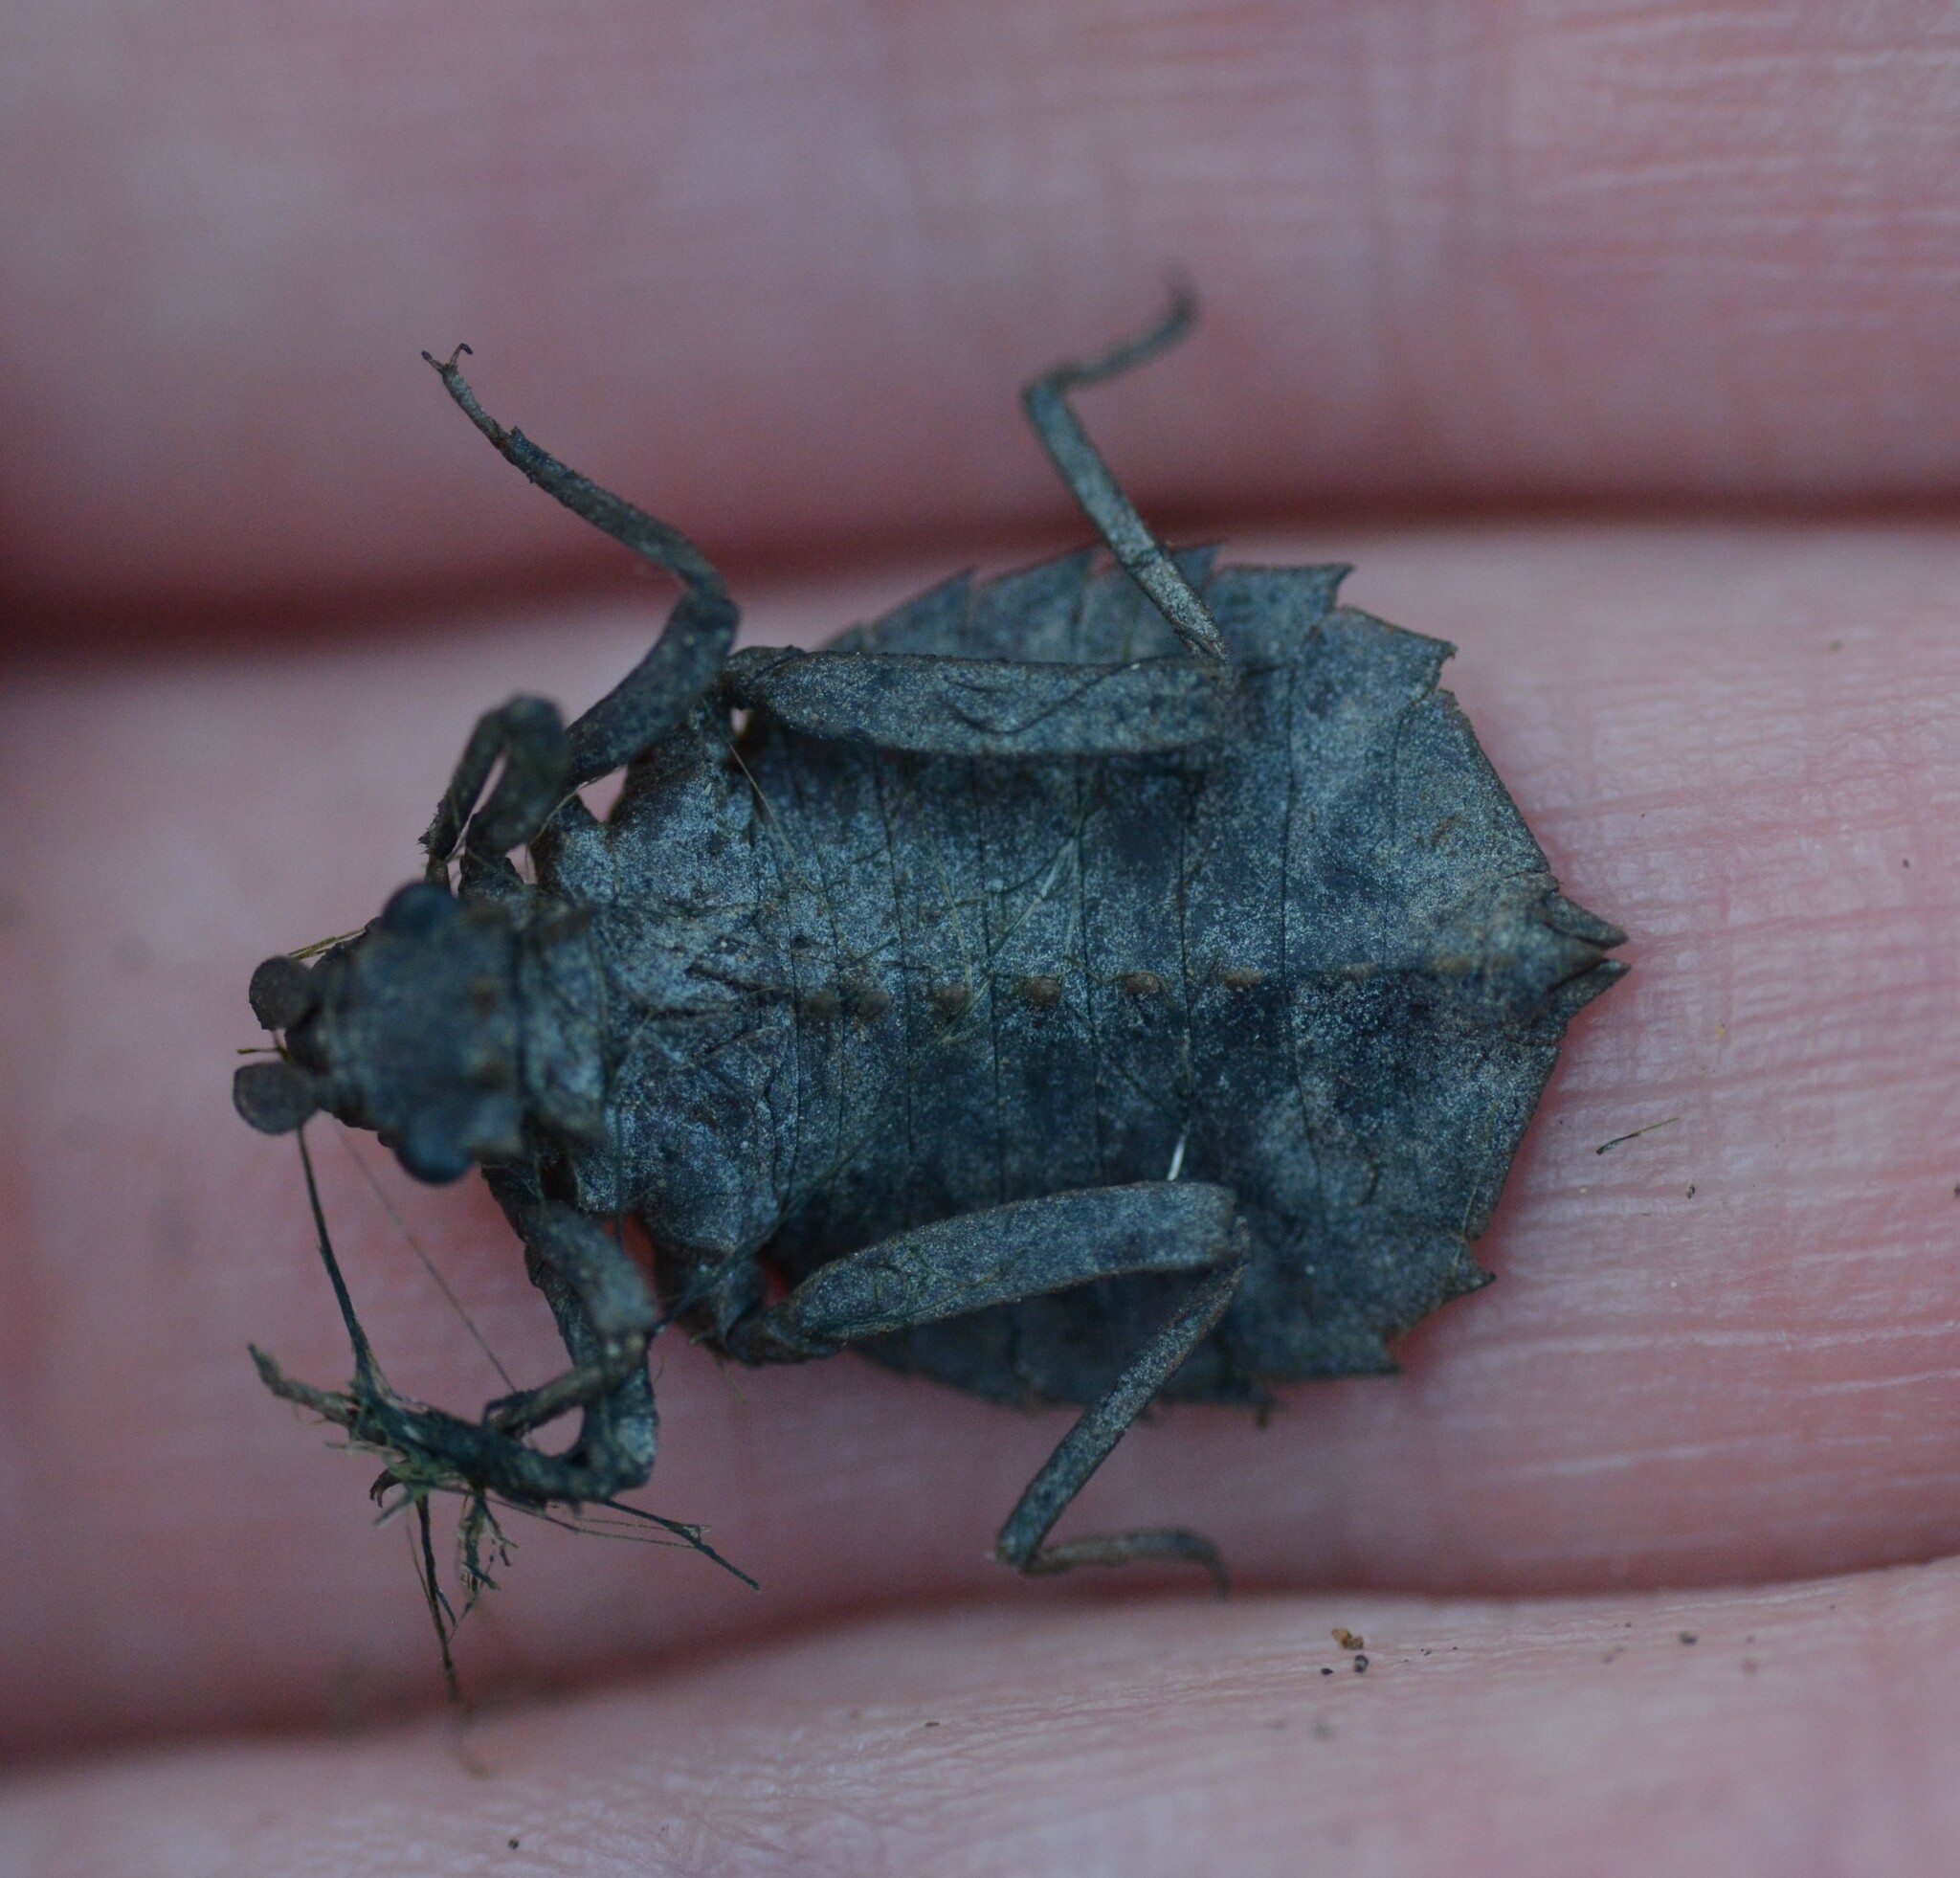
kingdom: Animalia
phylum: Arthropoda
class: Insecta
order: Odonata
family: Gomphidae
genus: Hagenius
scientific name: Hagenius brevistylus
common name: Dragonhunter
